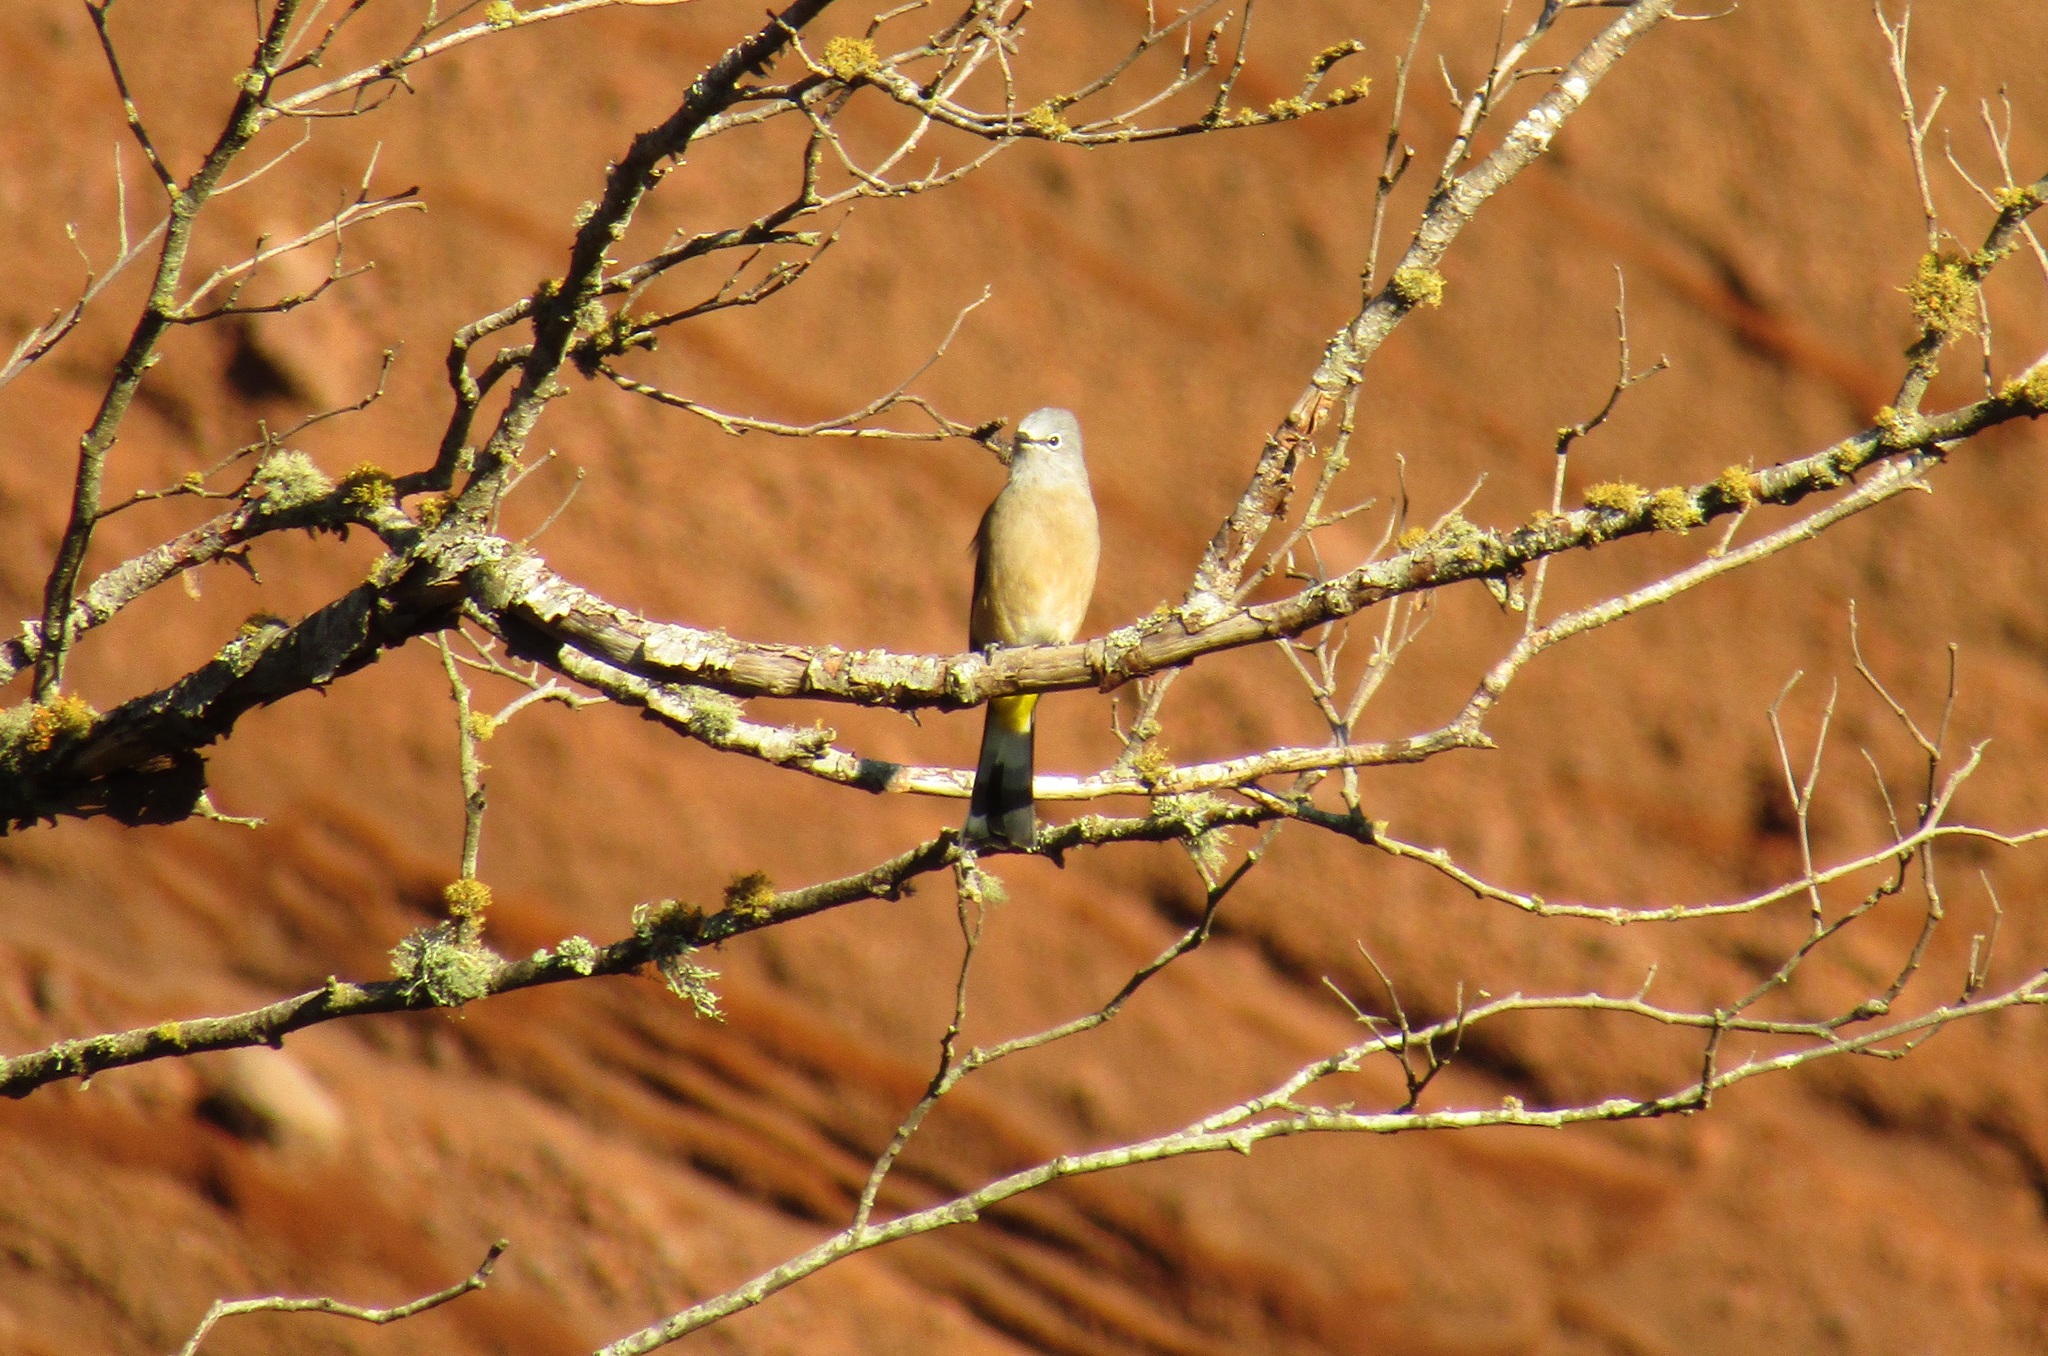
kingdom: Animalia
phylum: Chordata
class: Aves
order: Passeriformes
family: Ptilogonatidae
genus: Ptilogonys
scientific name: Ptilogonys cinereus
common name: Gray silky-flycatcher
